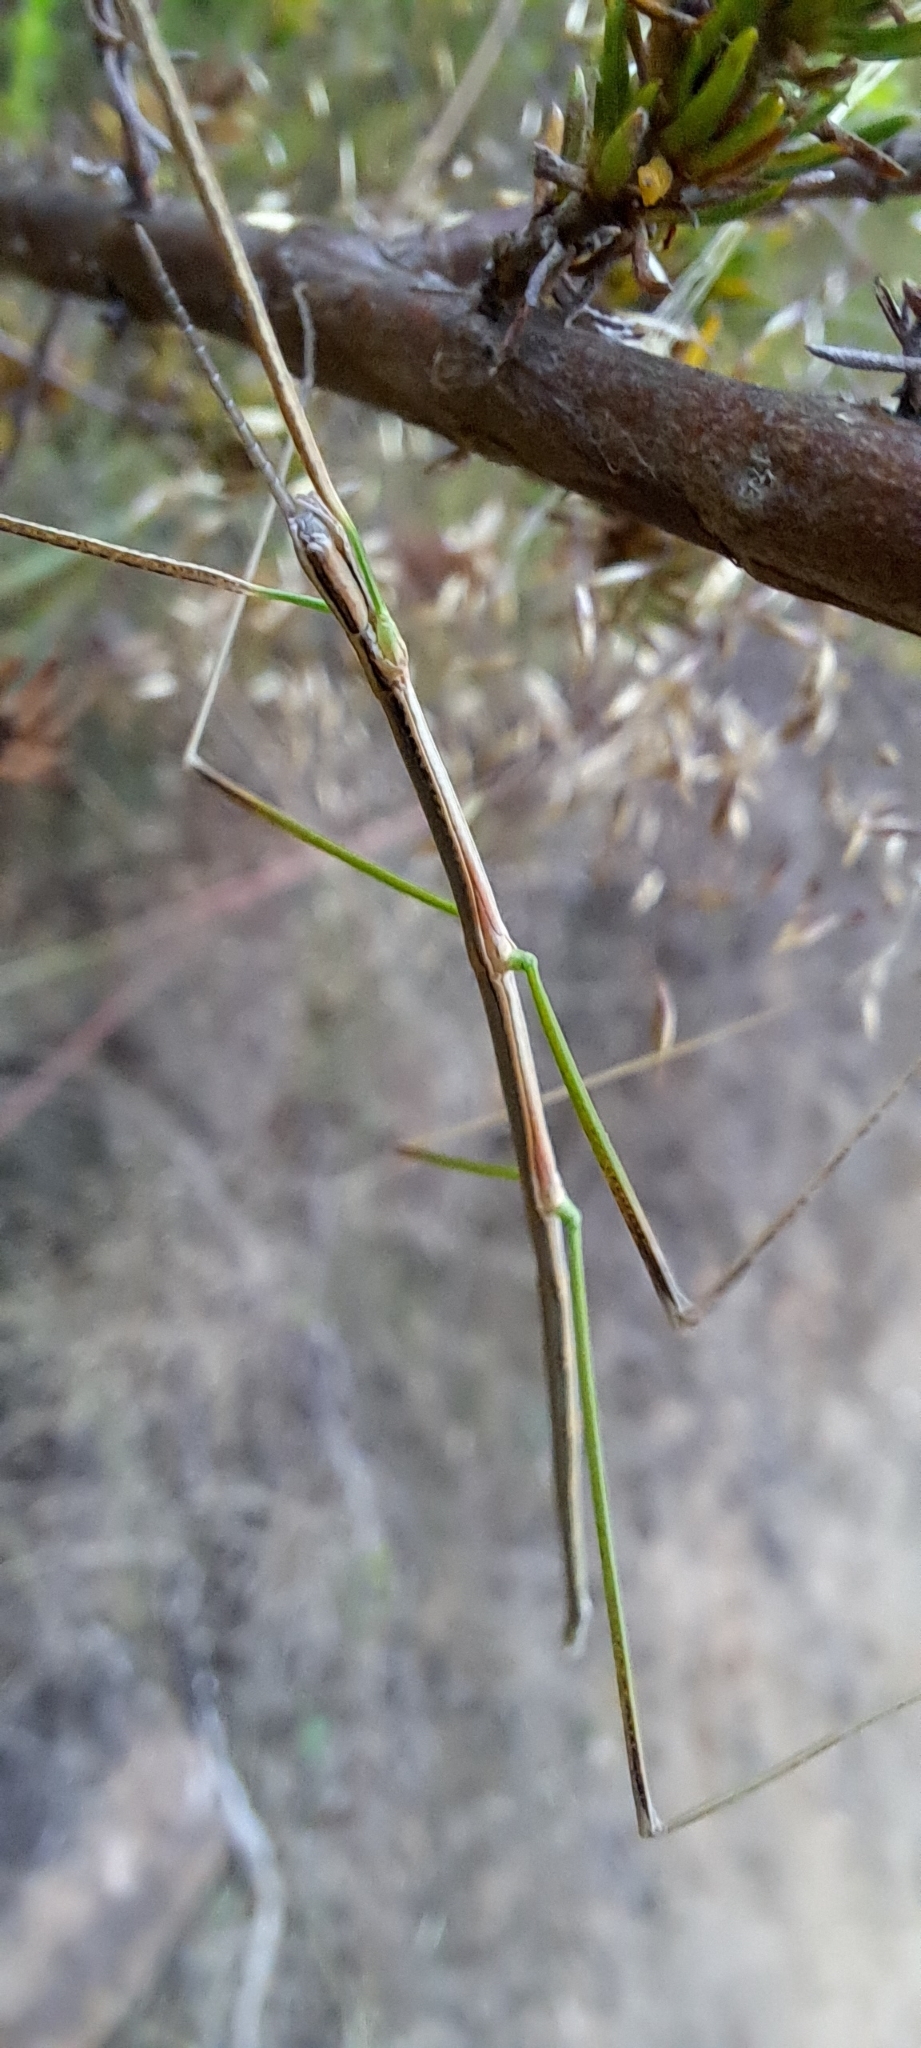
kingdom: Animalia
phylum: Arthropoda
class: Insecta
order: Phasmida
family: Bacillidae
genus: Phalces
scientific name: Phalces brevis
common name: Cape stick insect
